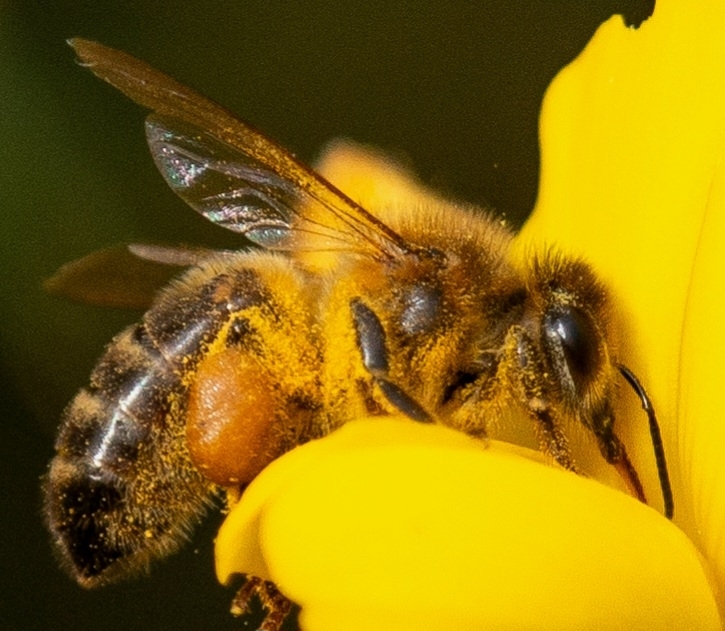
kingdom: Animalia
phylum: Arthropoda
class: Insecta
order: Hymenoptera
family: Apidae
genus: Apis
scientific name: Apis mellifera
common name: Honey bee
